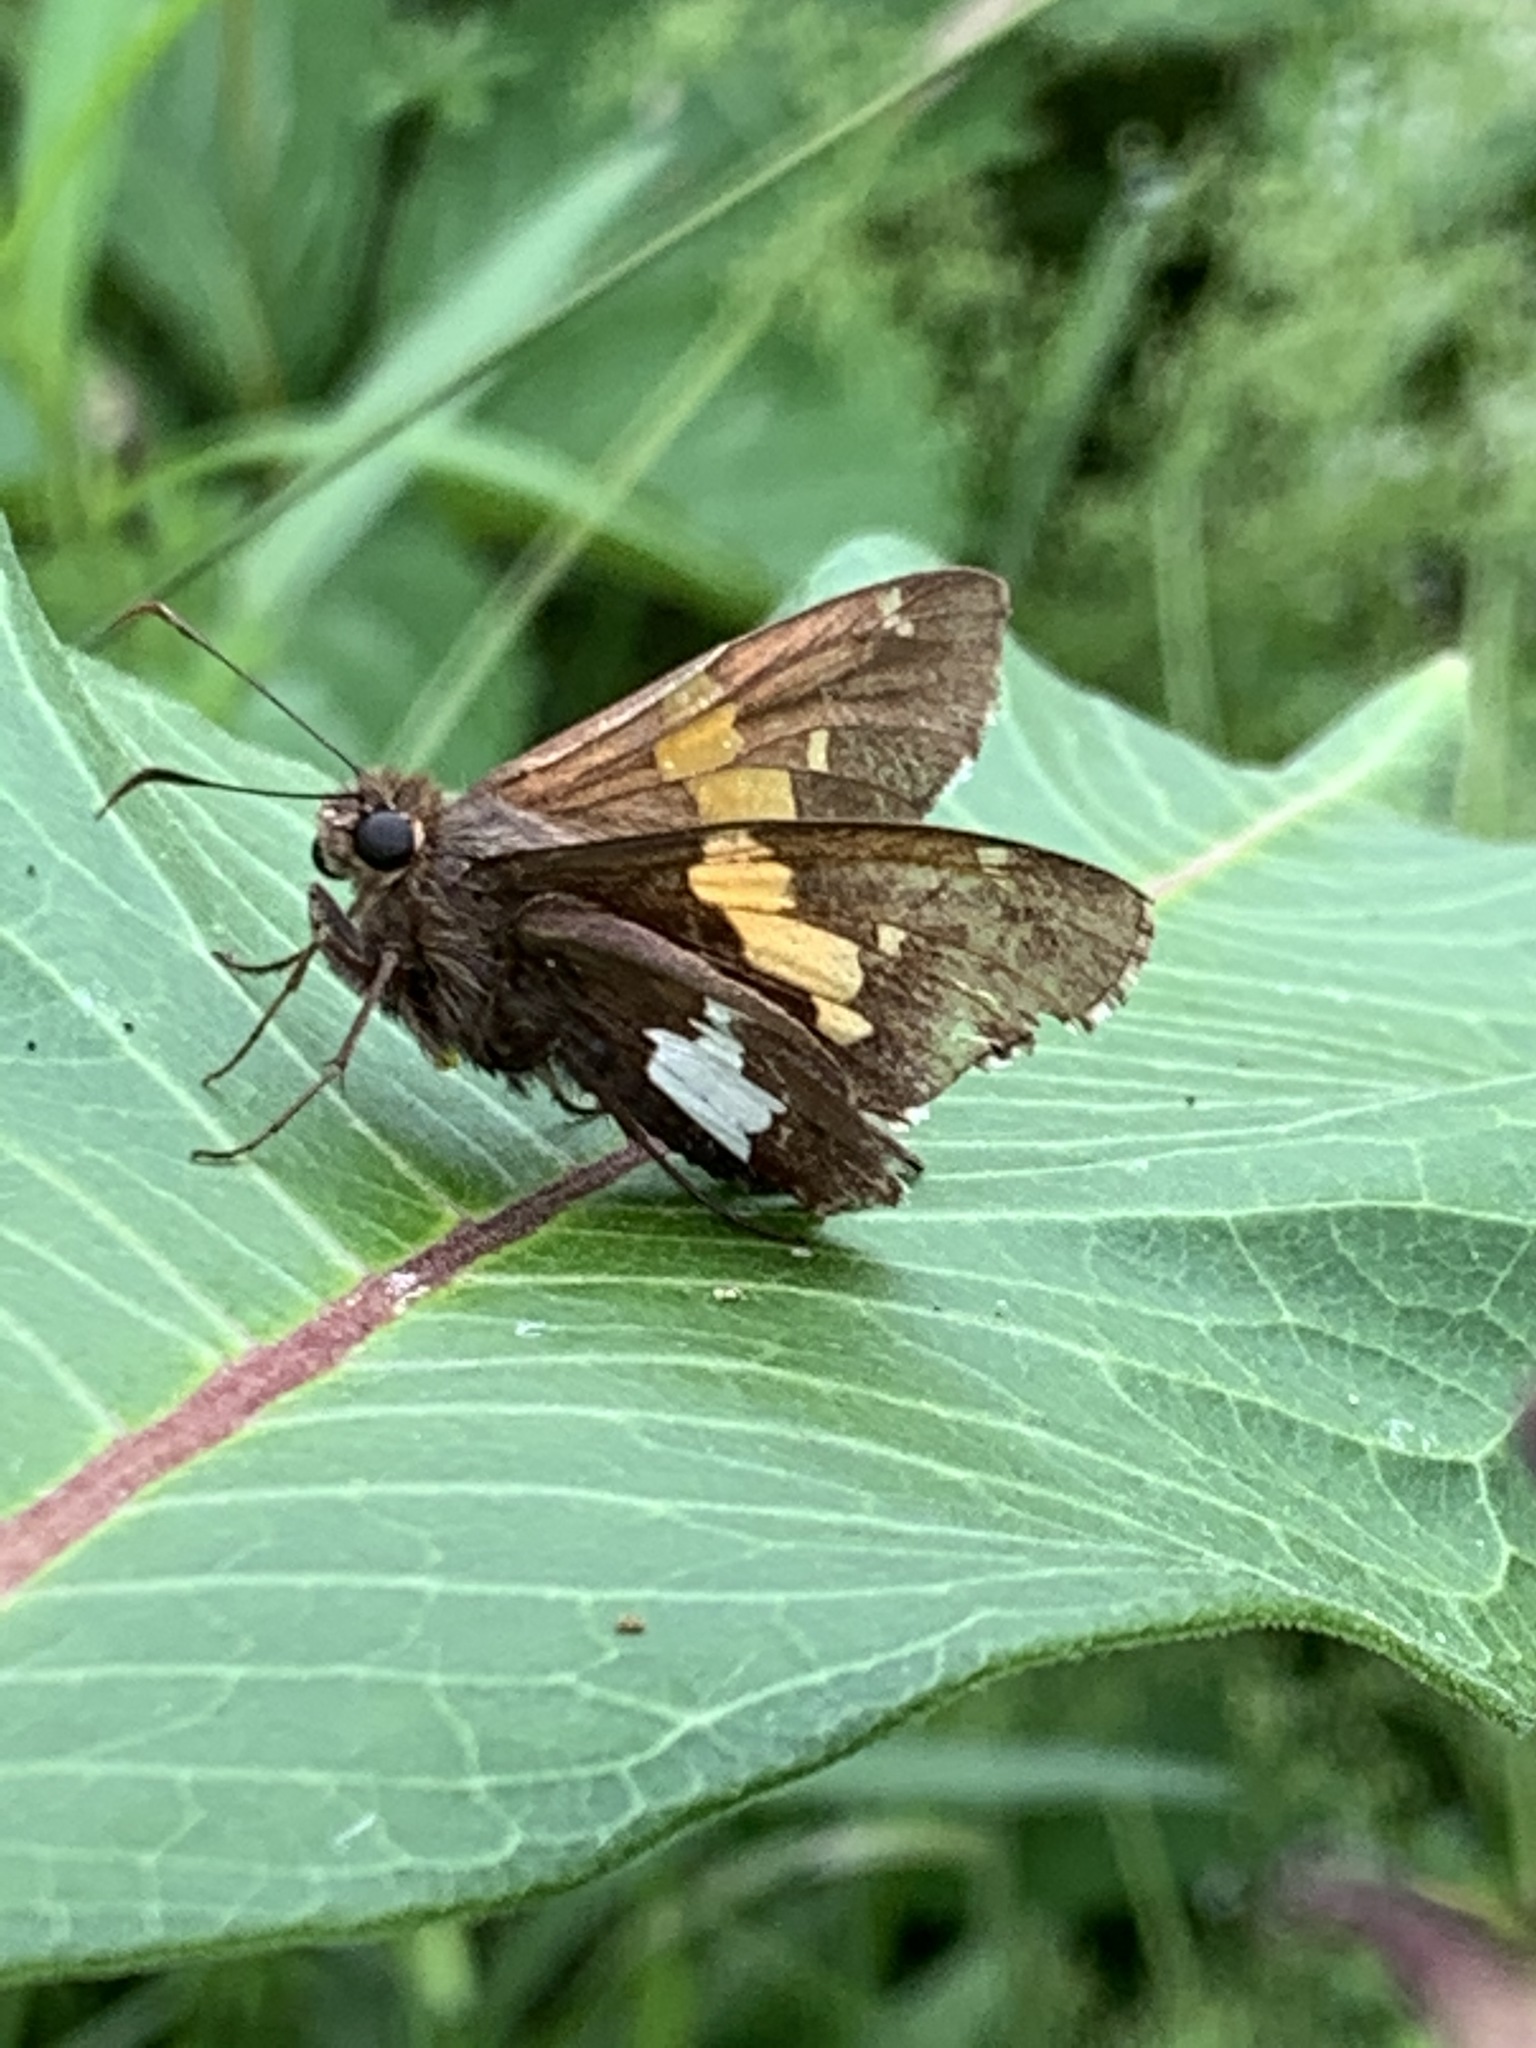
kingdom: Animalia
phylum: Arthropoda
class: Insecta
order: Lepidoptera
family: Hesperiidae
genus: Epargyreus
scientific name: Epargyreus clarus
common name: Silver-spotted skipper
